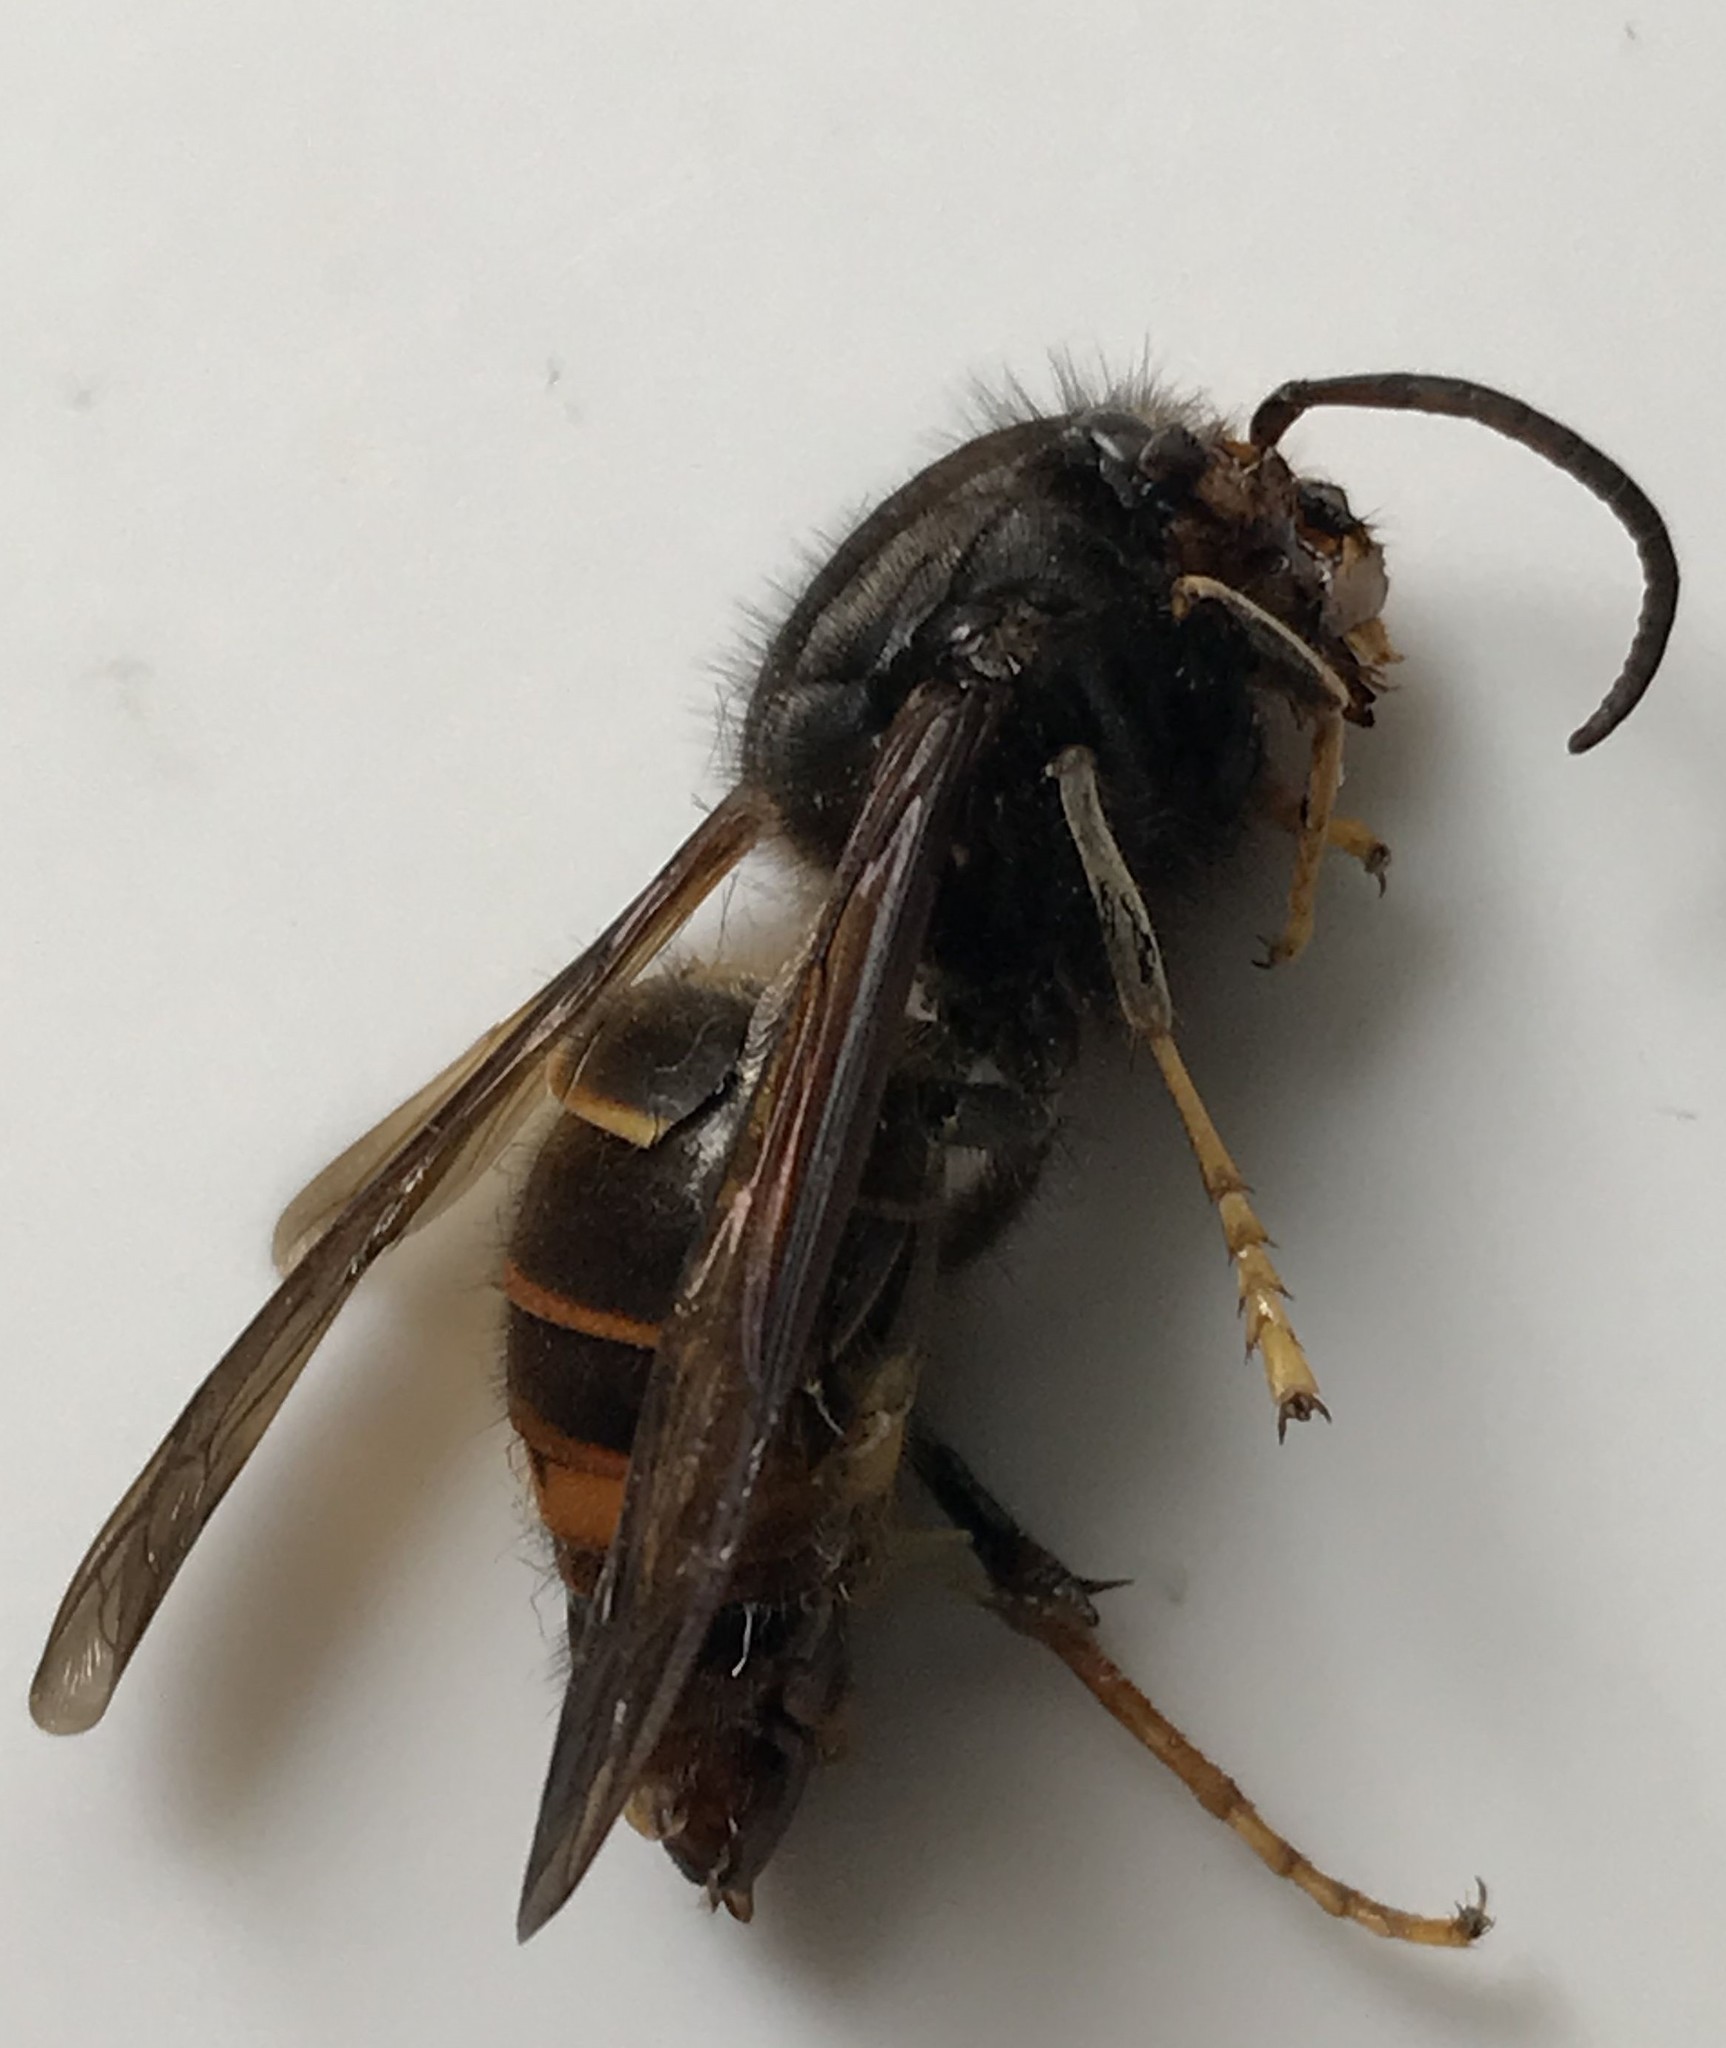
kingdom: Animalia
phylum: Arthropoda
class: Insecta
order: Hymenoptera
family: Vespidae
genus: Vespa
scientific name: Vespa velutina
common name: Asian hornet
